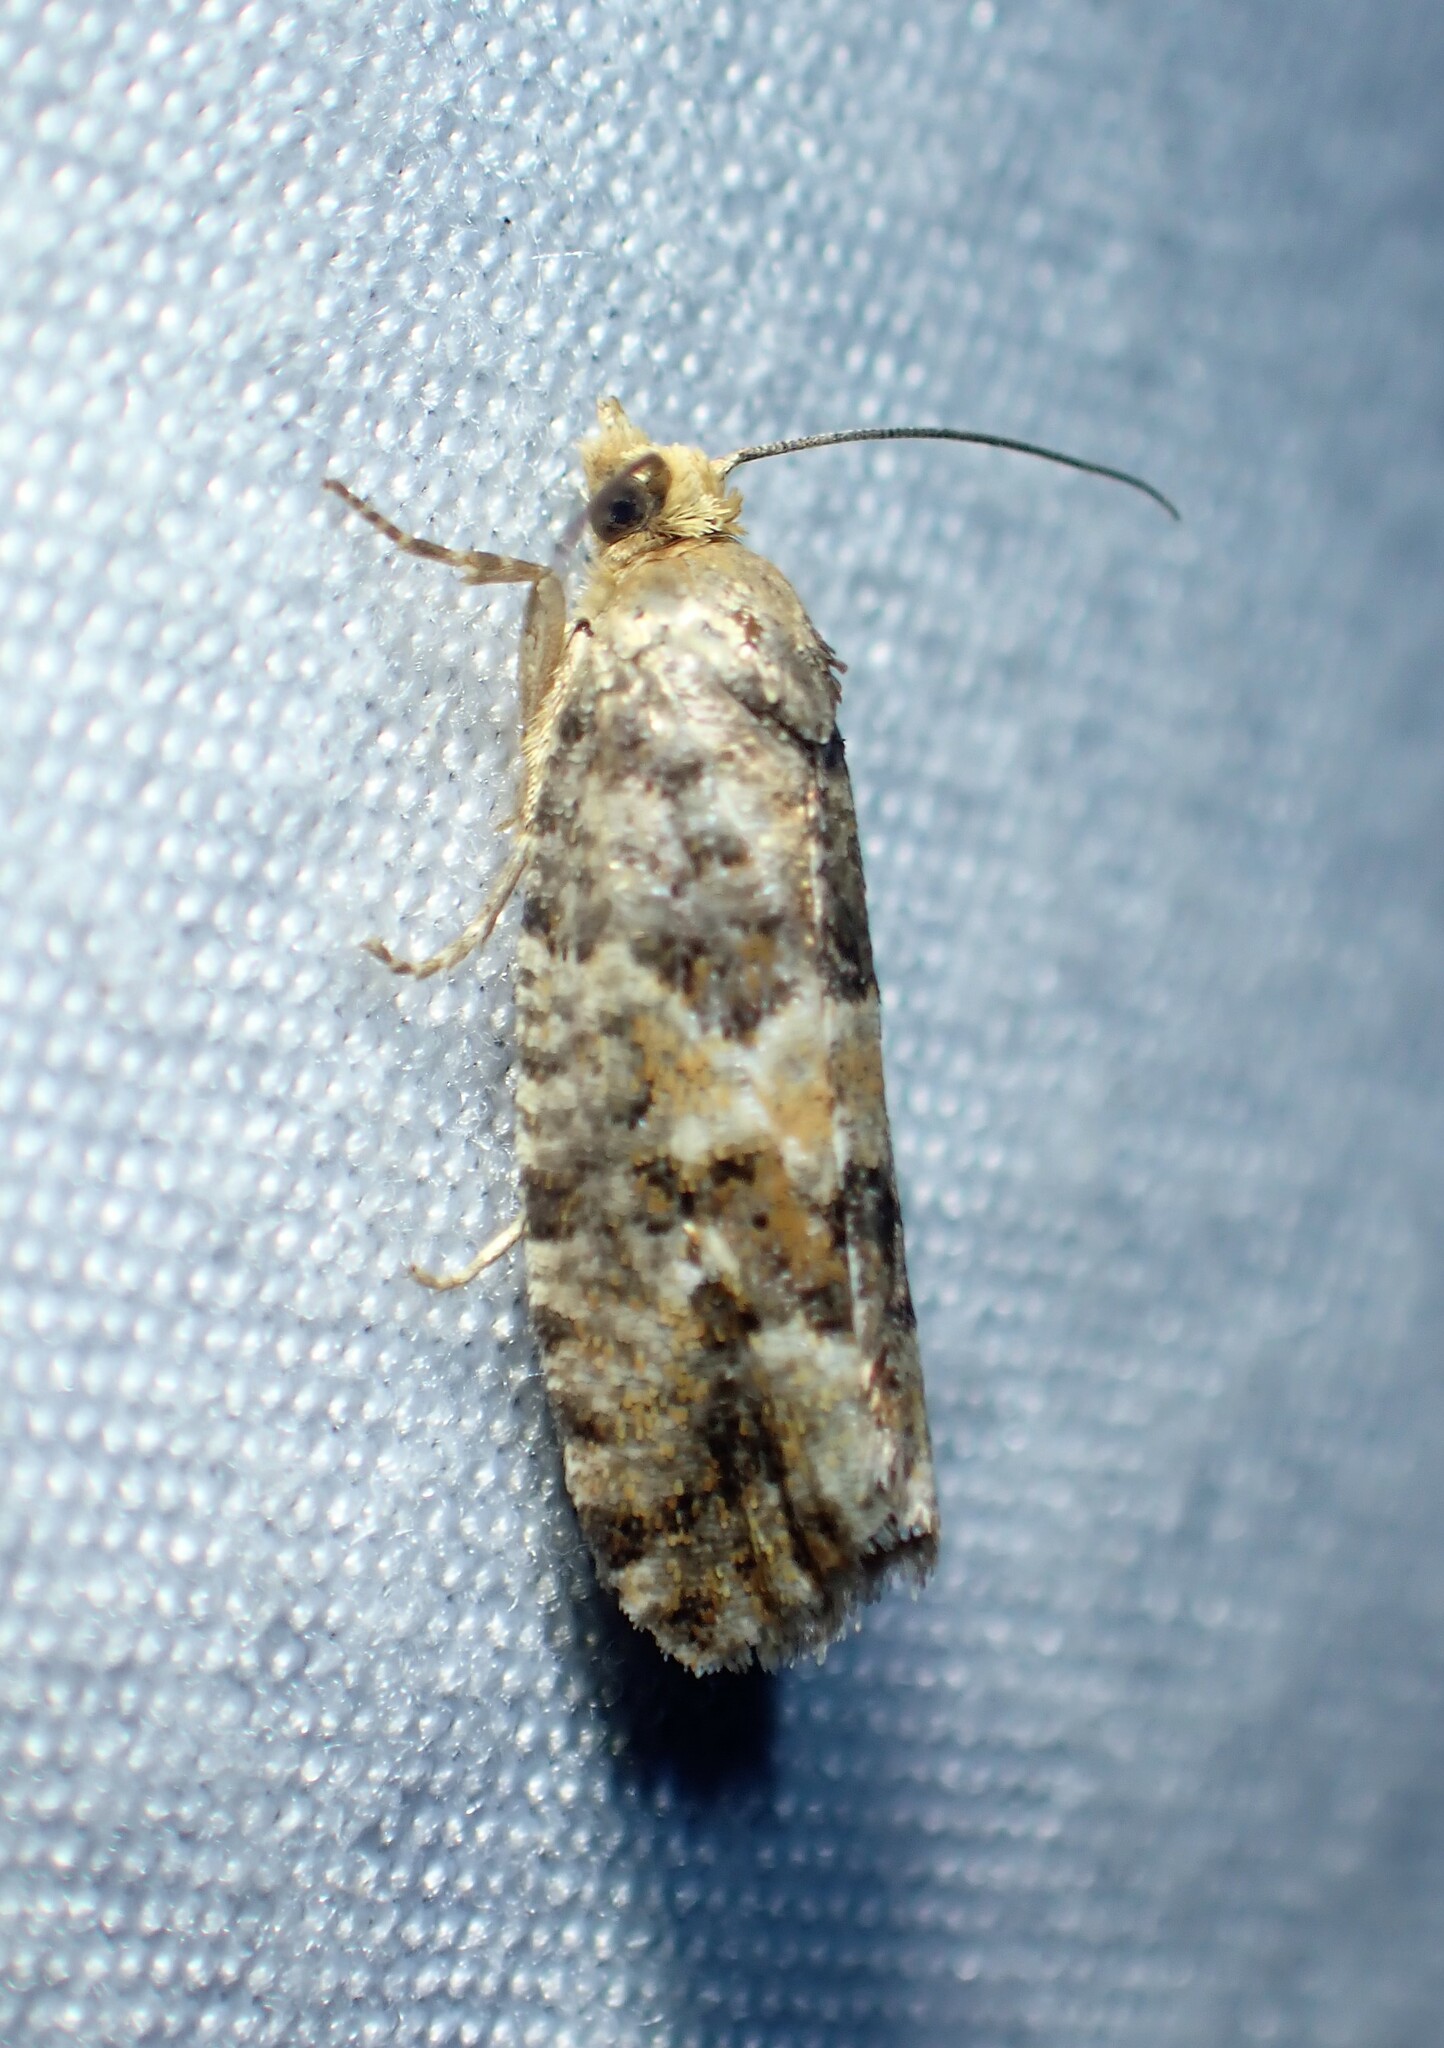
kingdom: Animalia
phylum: Arthropoda
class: Insecta
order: Lepidoptera
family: Tortricidae
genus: Eucopina
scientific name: Eucopina tocullionana
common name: White pinecone borer moth
